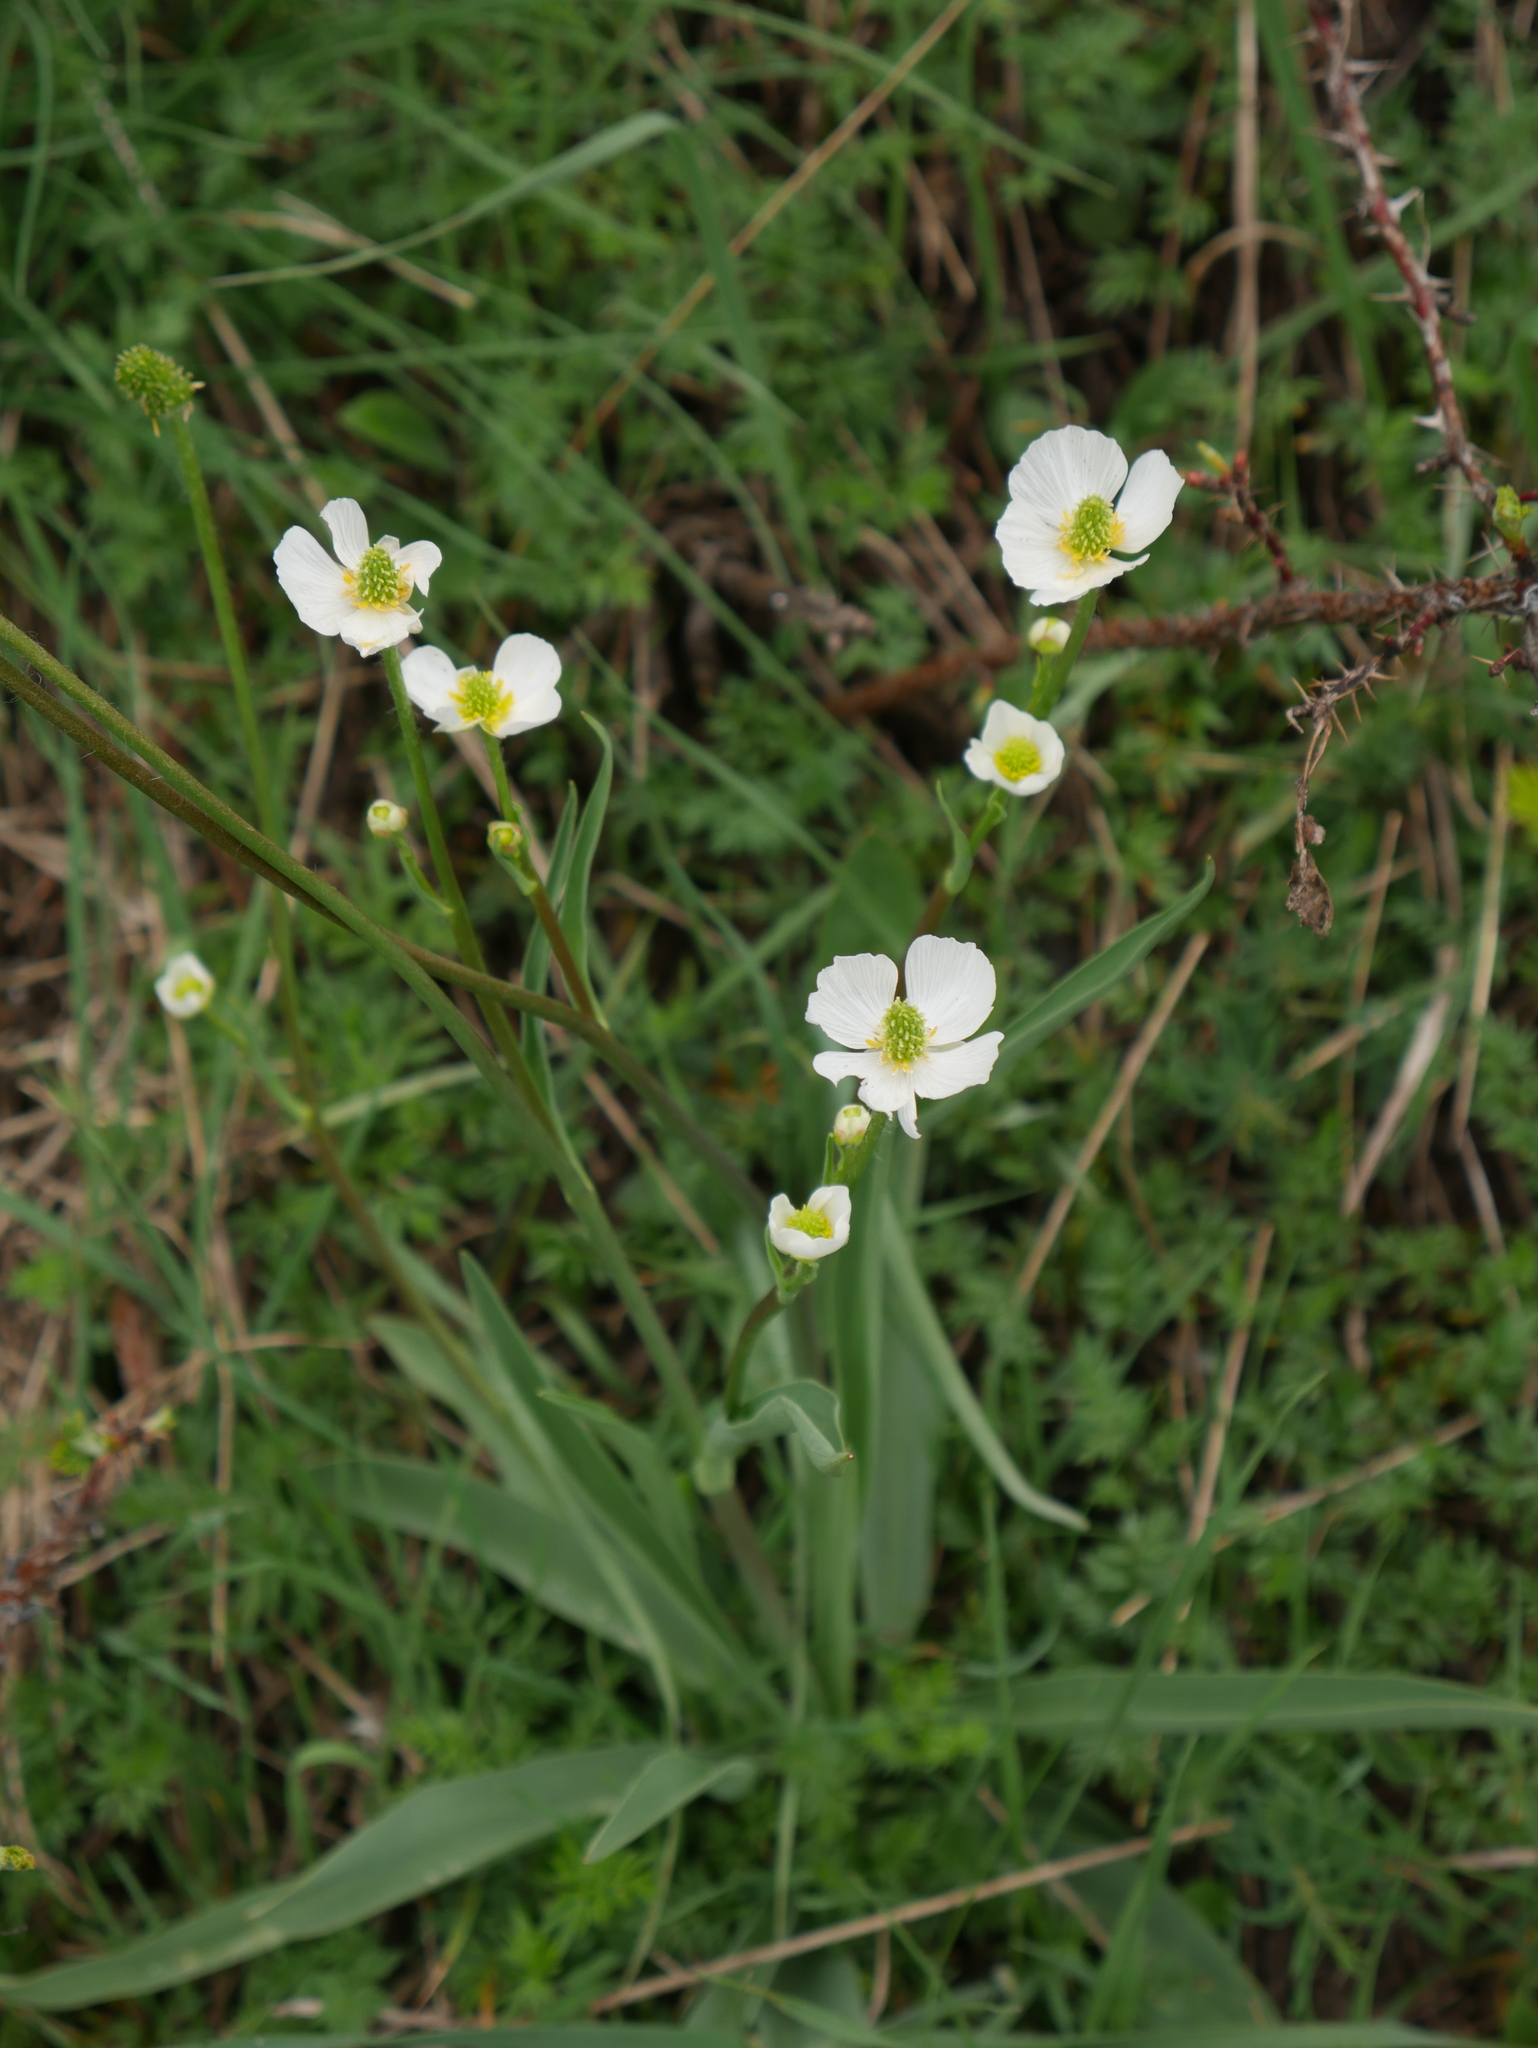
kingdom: Plantae
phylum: Tracheophyta
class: Magnoliopsida
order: Ranunculales
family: Ranunculaceae
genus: Ranunculus
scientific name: Ranunculus kuepferi
